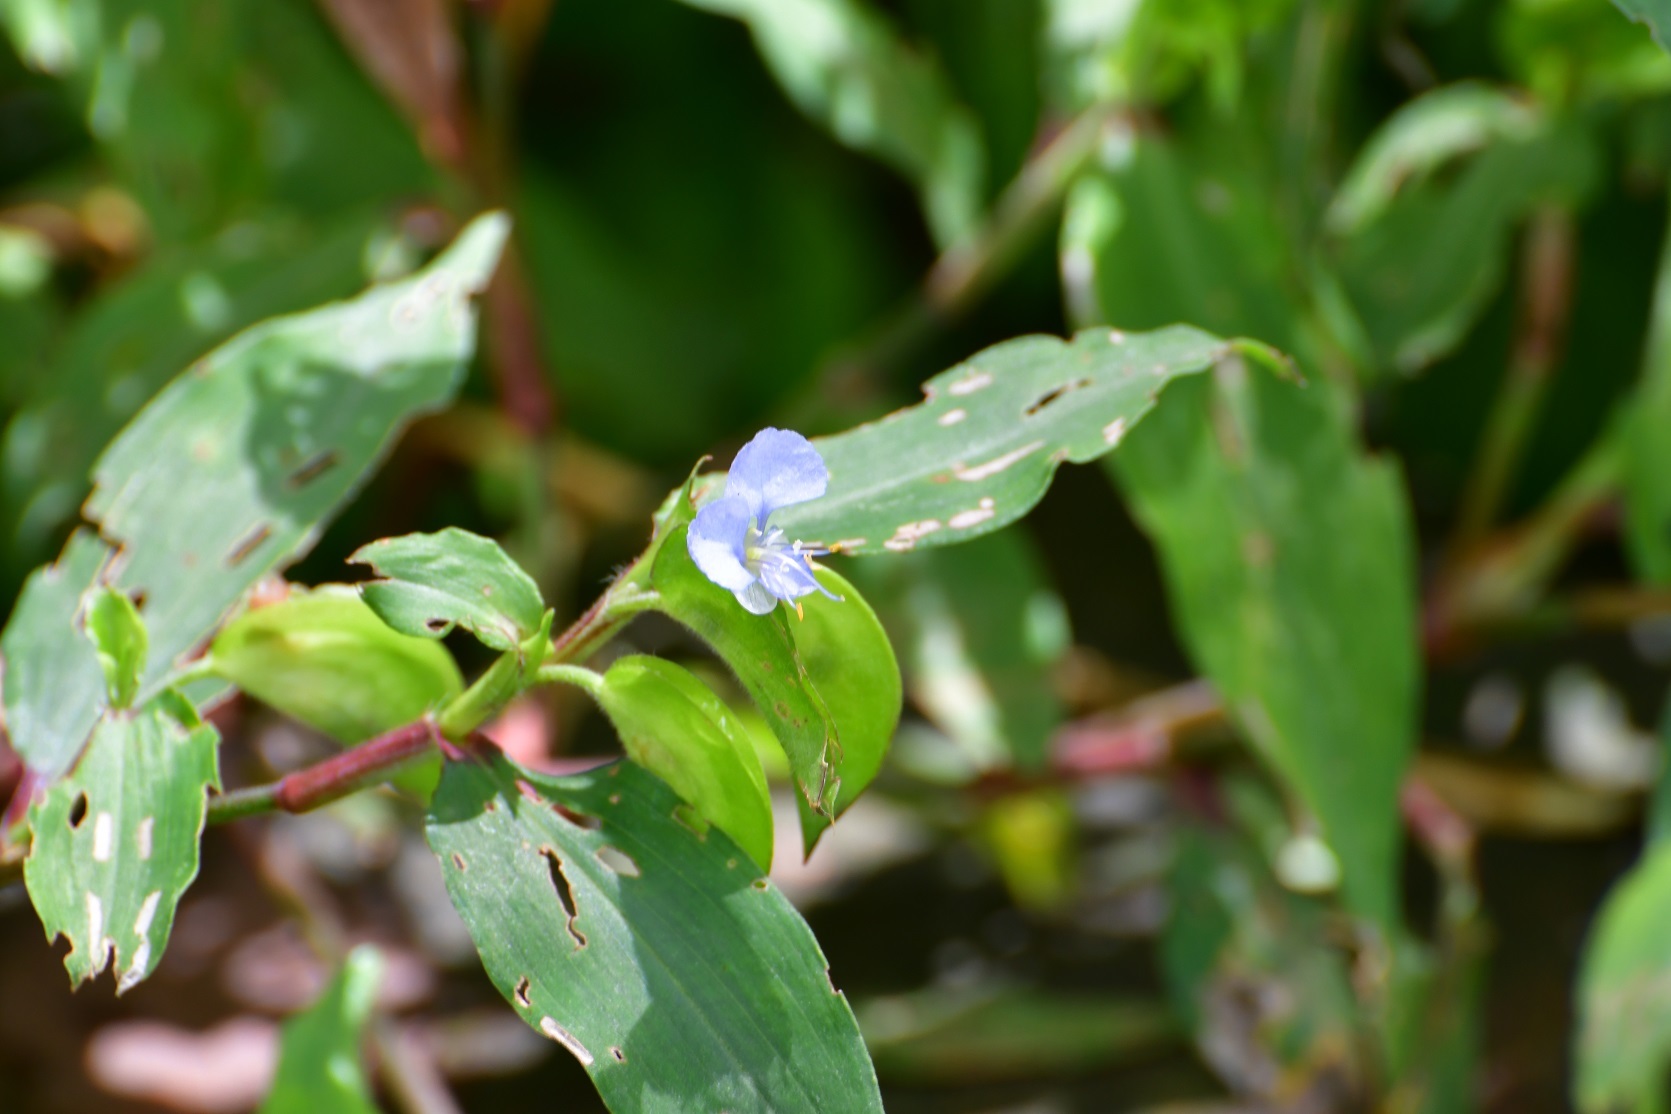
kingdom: Plantae
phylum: Tracheophyta
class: Liliopsida
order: Commelinales
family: Commelinaceae
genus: Commelina
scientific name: Commelina diffusa
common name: Climbing dayflower
